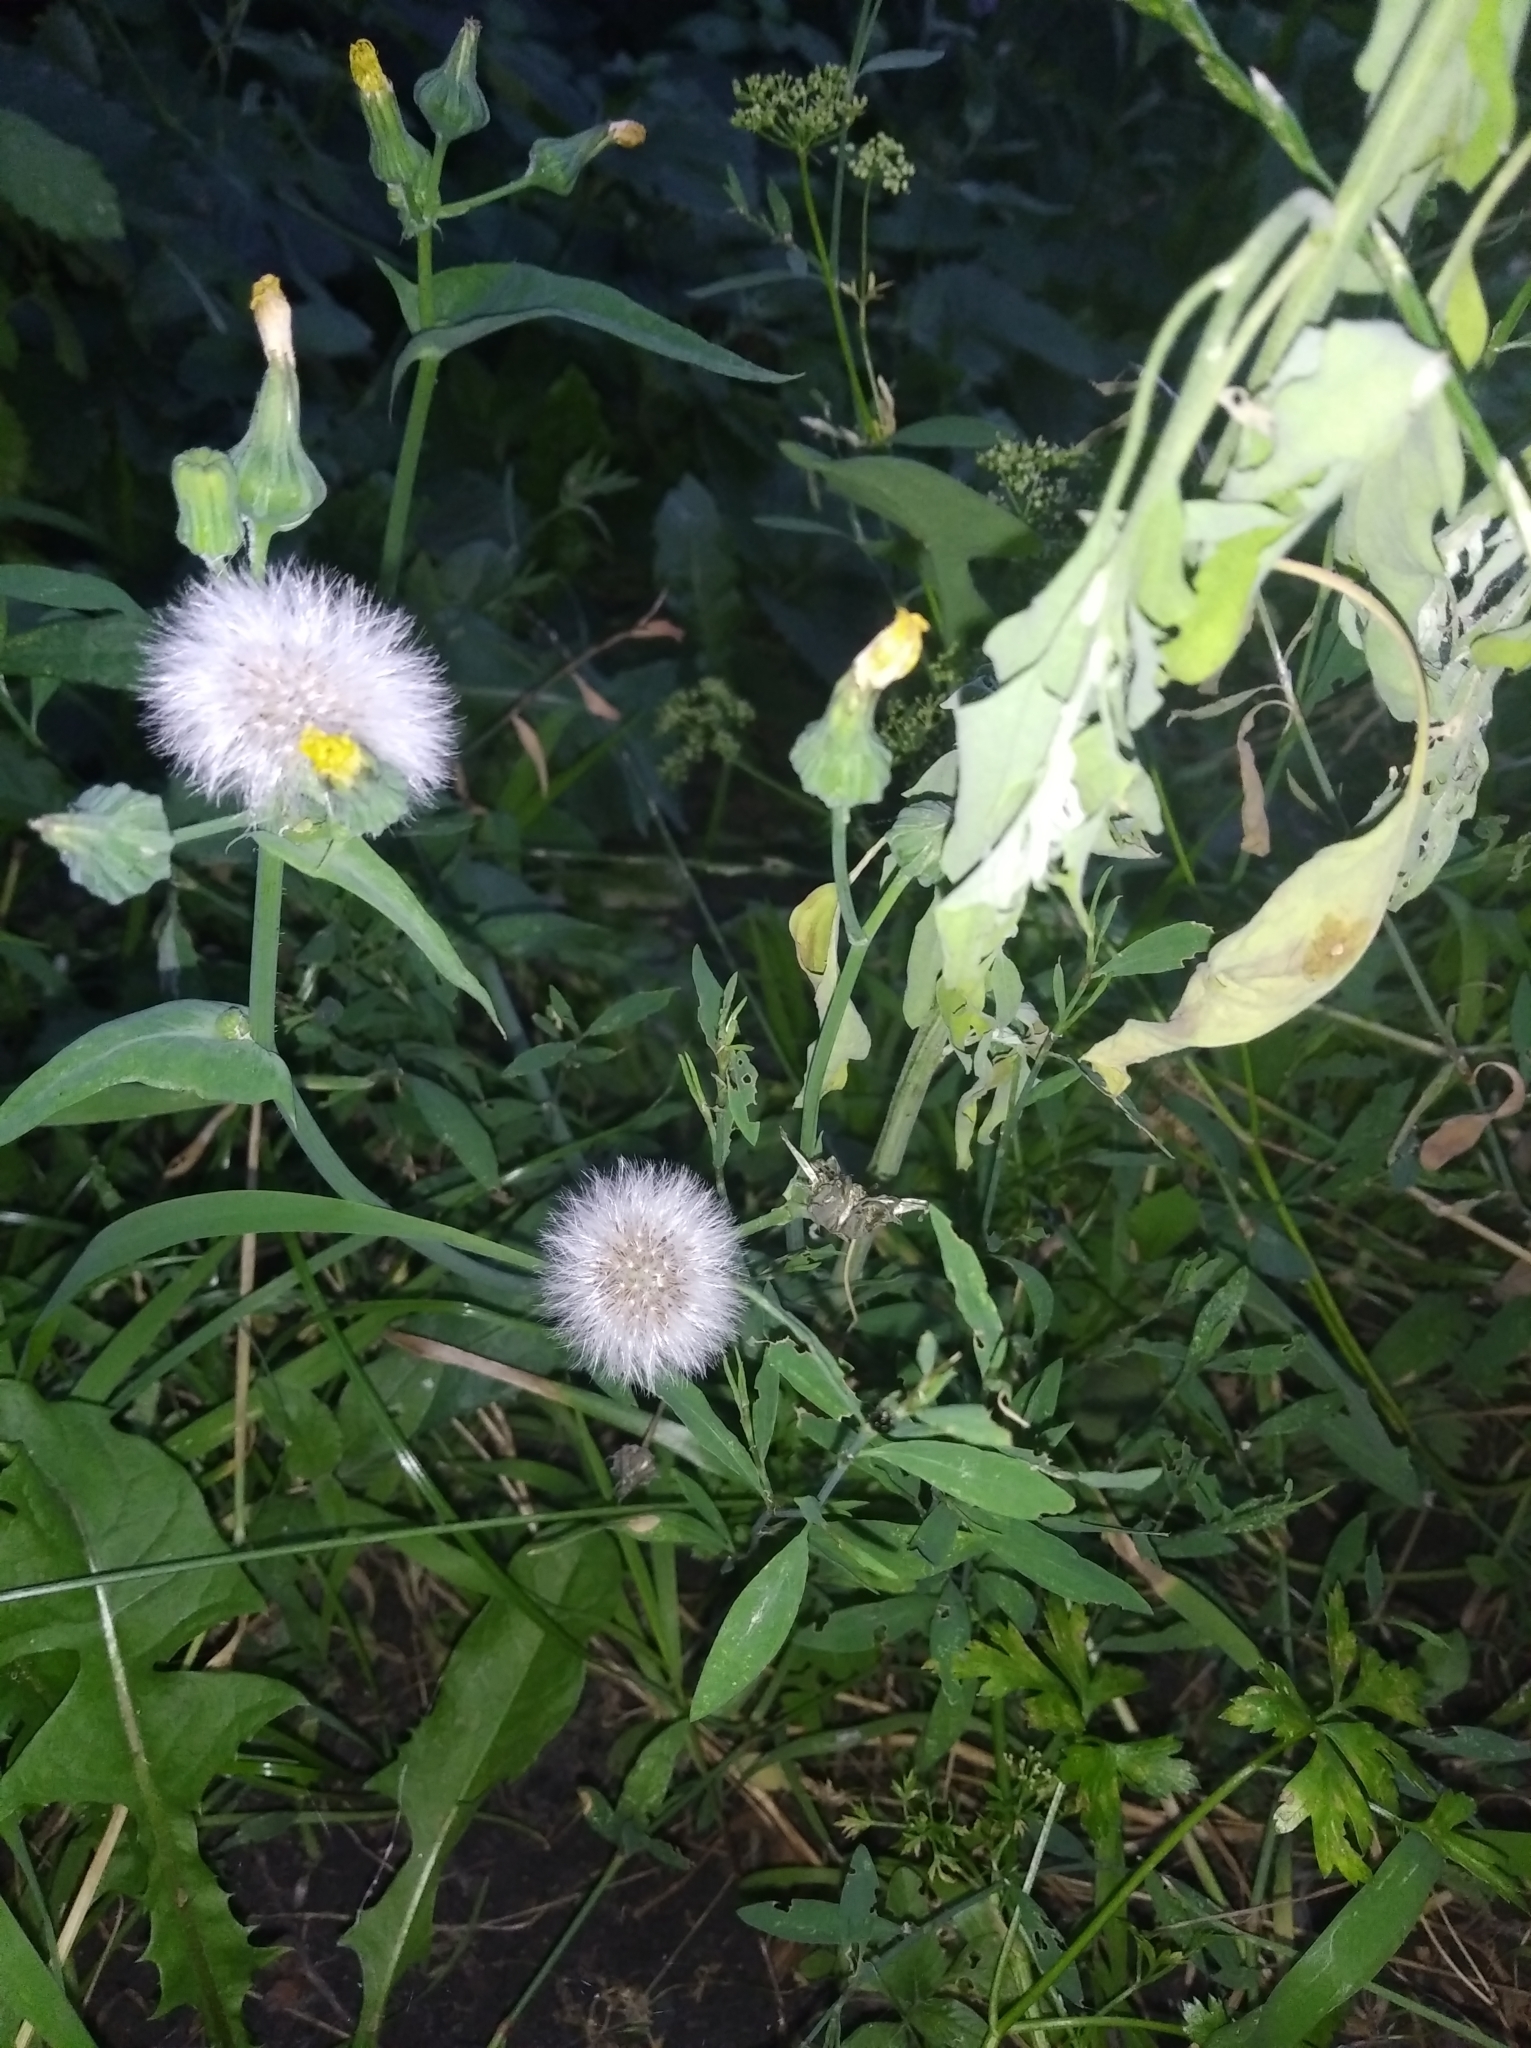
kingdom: Plantae
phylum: Tracheophyta
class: Magnoliopsida
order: Asterales
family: Asteraceae
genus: Sonchus
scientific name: Sonchus oleraceus
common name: Common sowthistle
